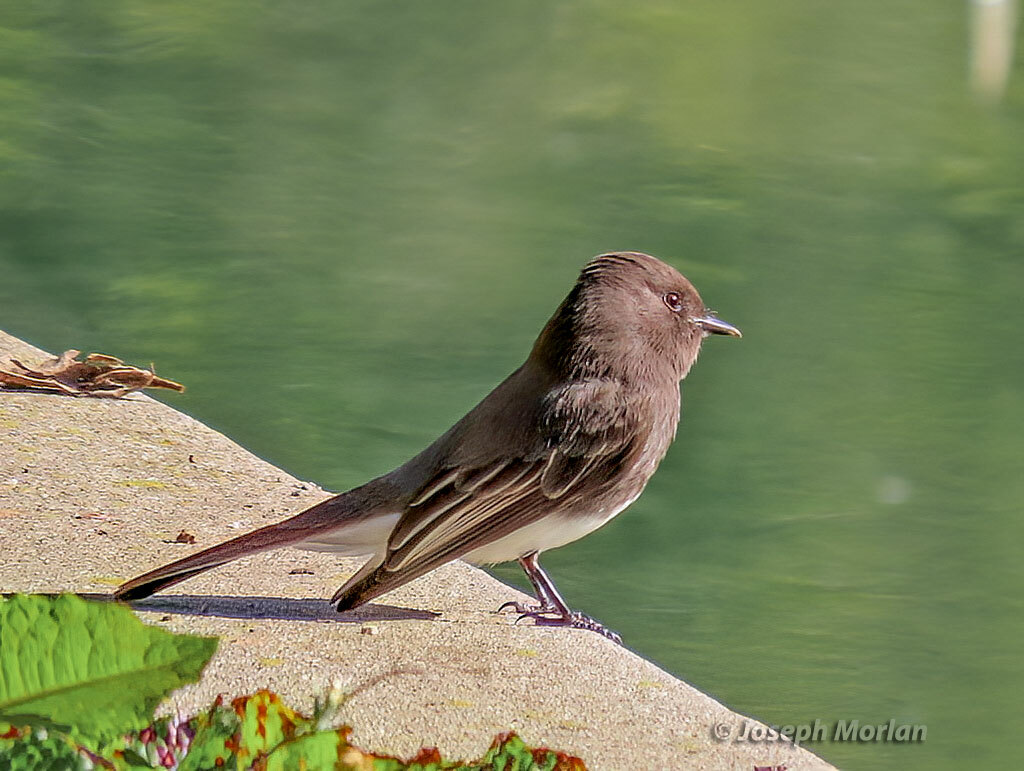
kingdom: Animalia
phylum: Chordata
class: Aves
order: Passeriformes
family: Tyrannidae
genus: Sayornis
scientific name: Sayornis nigricans
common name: Black phoebe
